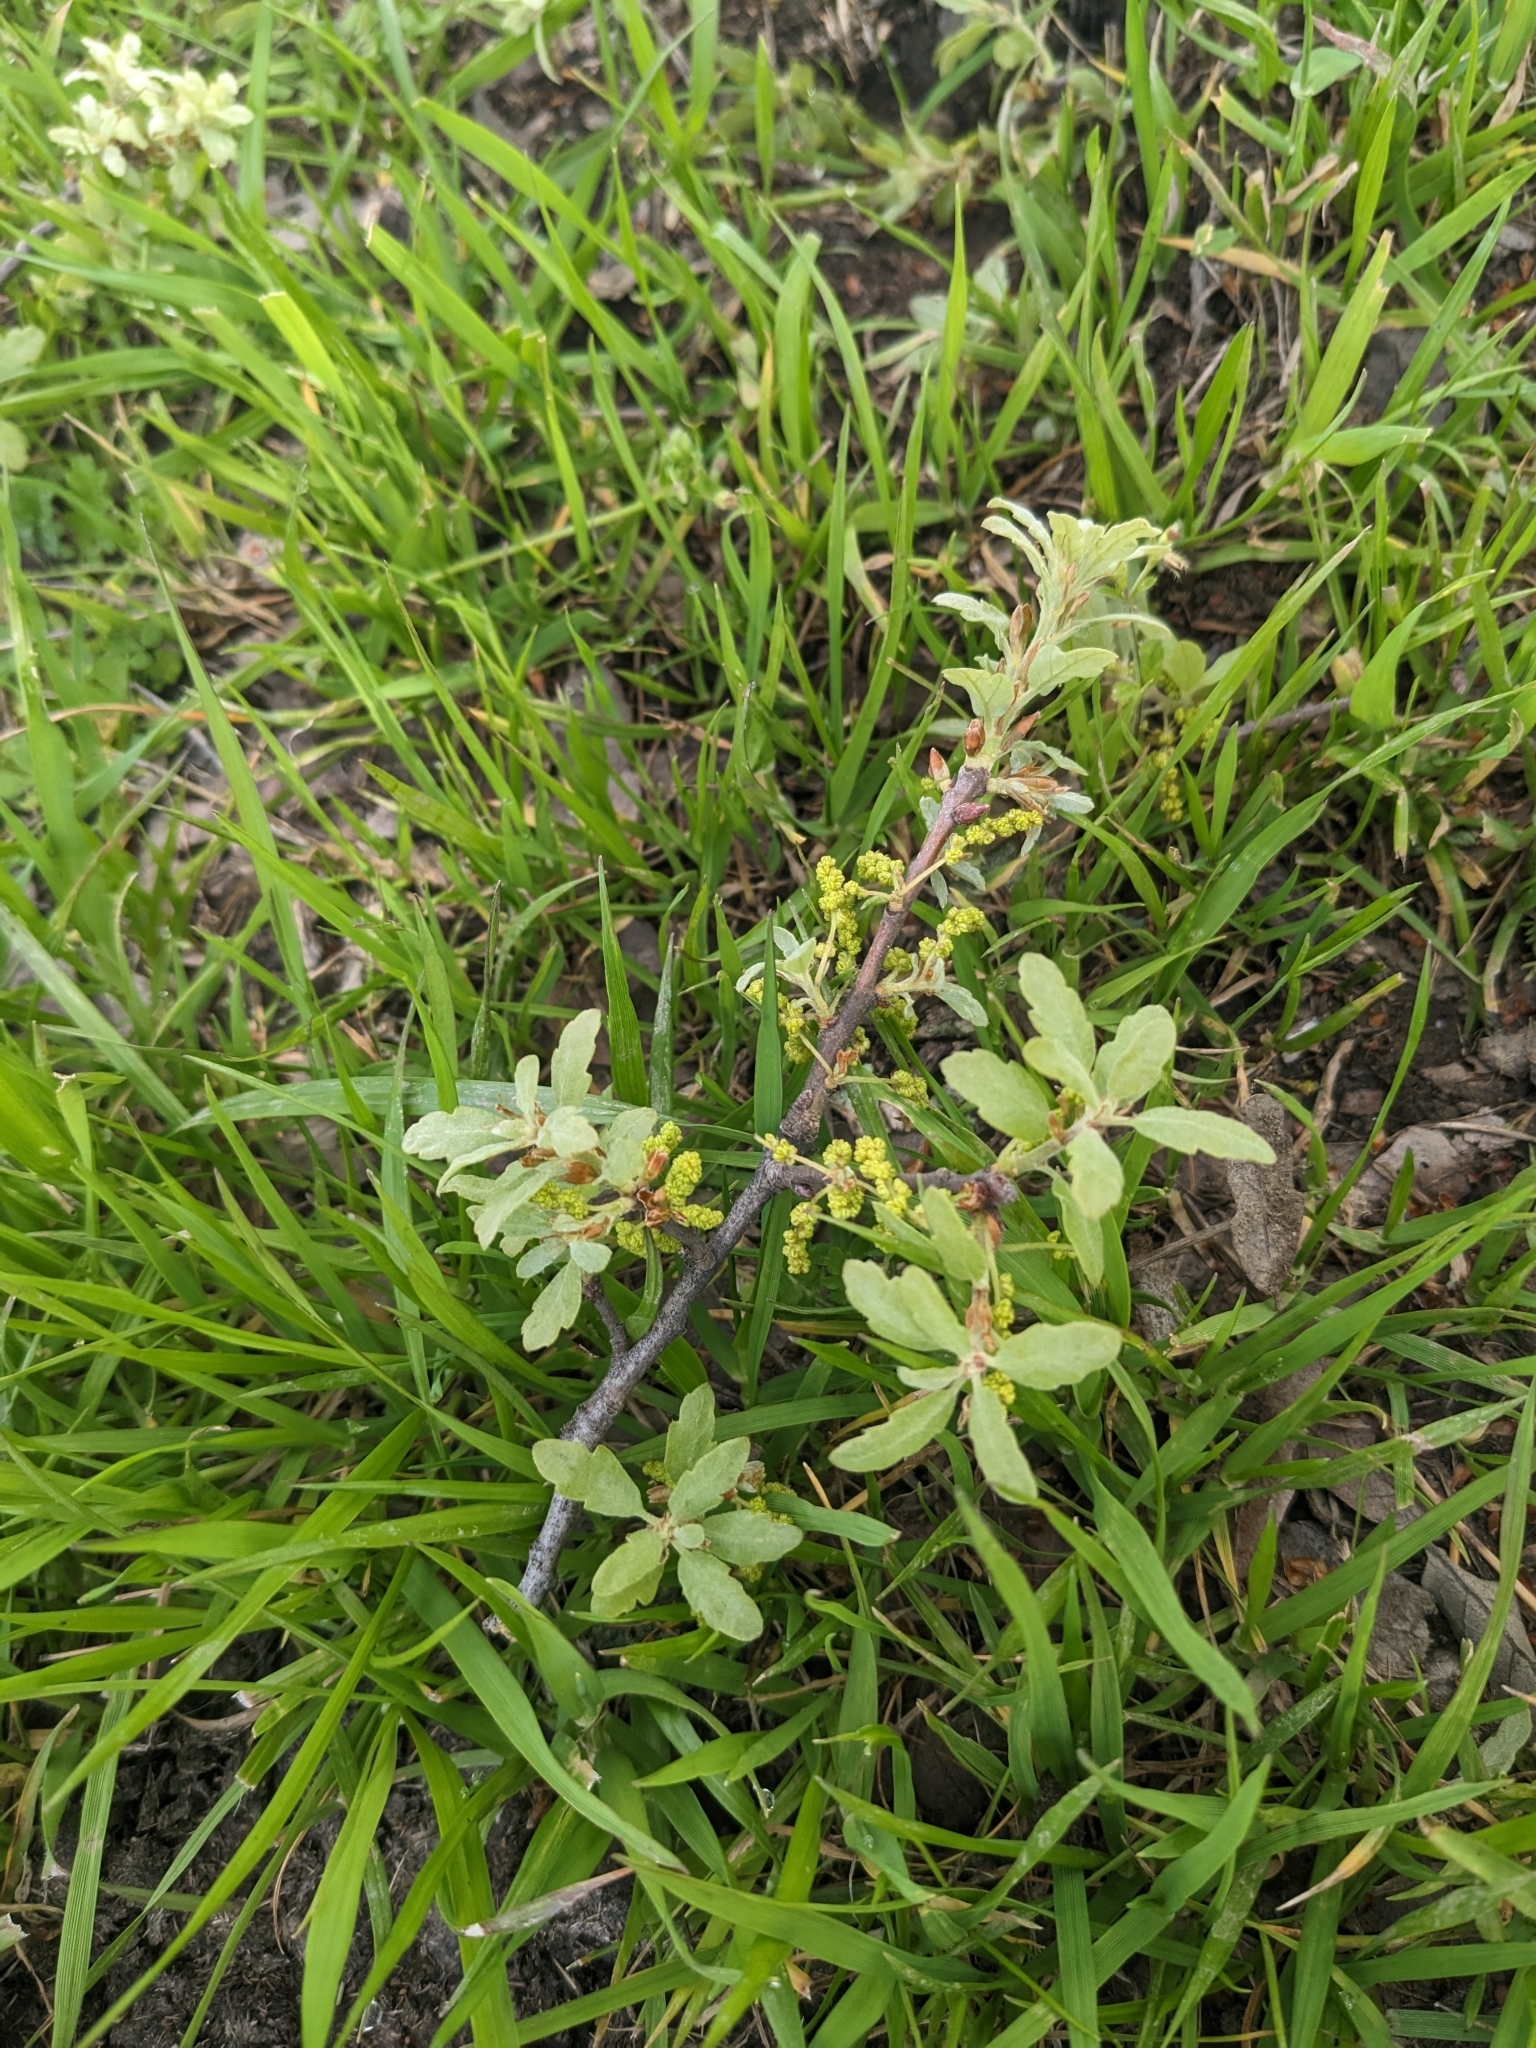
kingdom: Plantae
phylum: Tracheophyta
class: Magnoliopsida
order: Fagales
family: Fagaceae
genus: Quercus
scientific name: Quercus douglasii
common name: Blue oak
